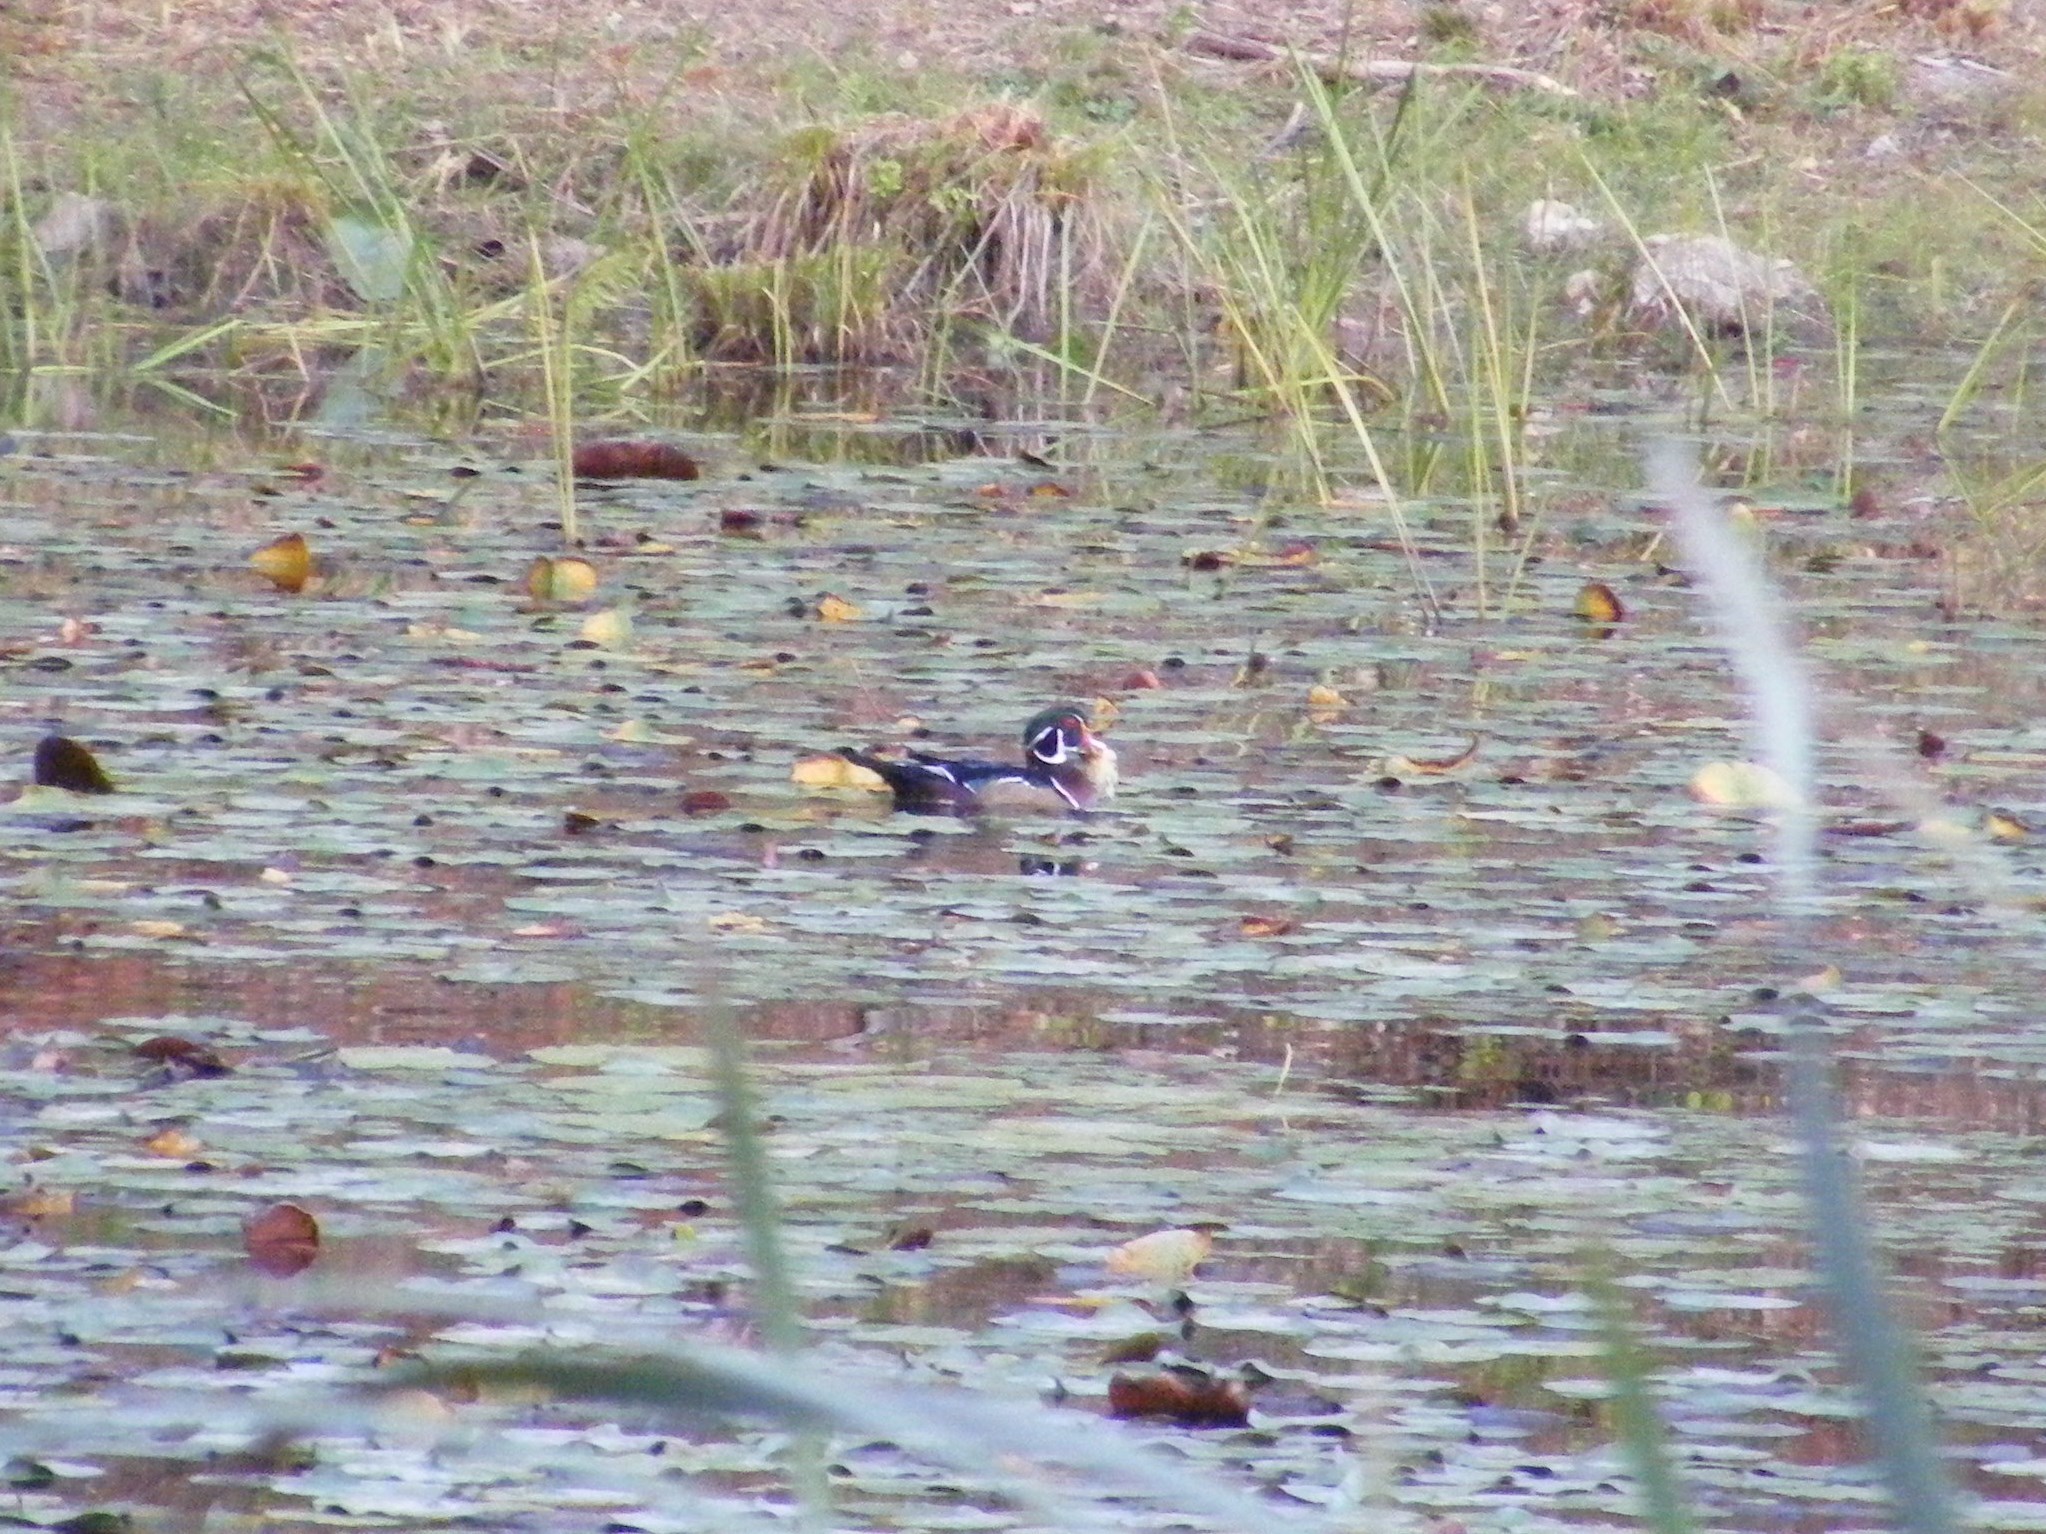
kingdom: Animalia
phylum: Chordata
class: Aves
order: Anseriformes
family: Anatidae
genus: Aix
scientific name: Aix sponsa
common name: Wood duck
